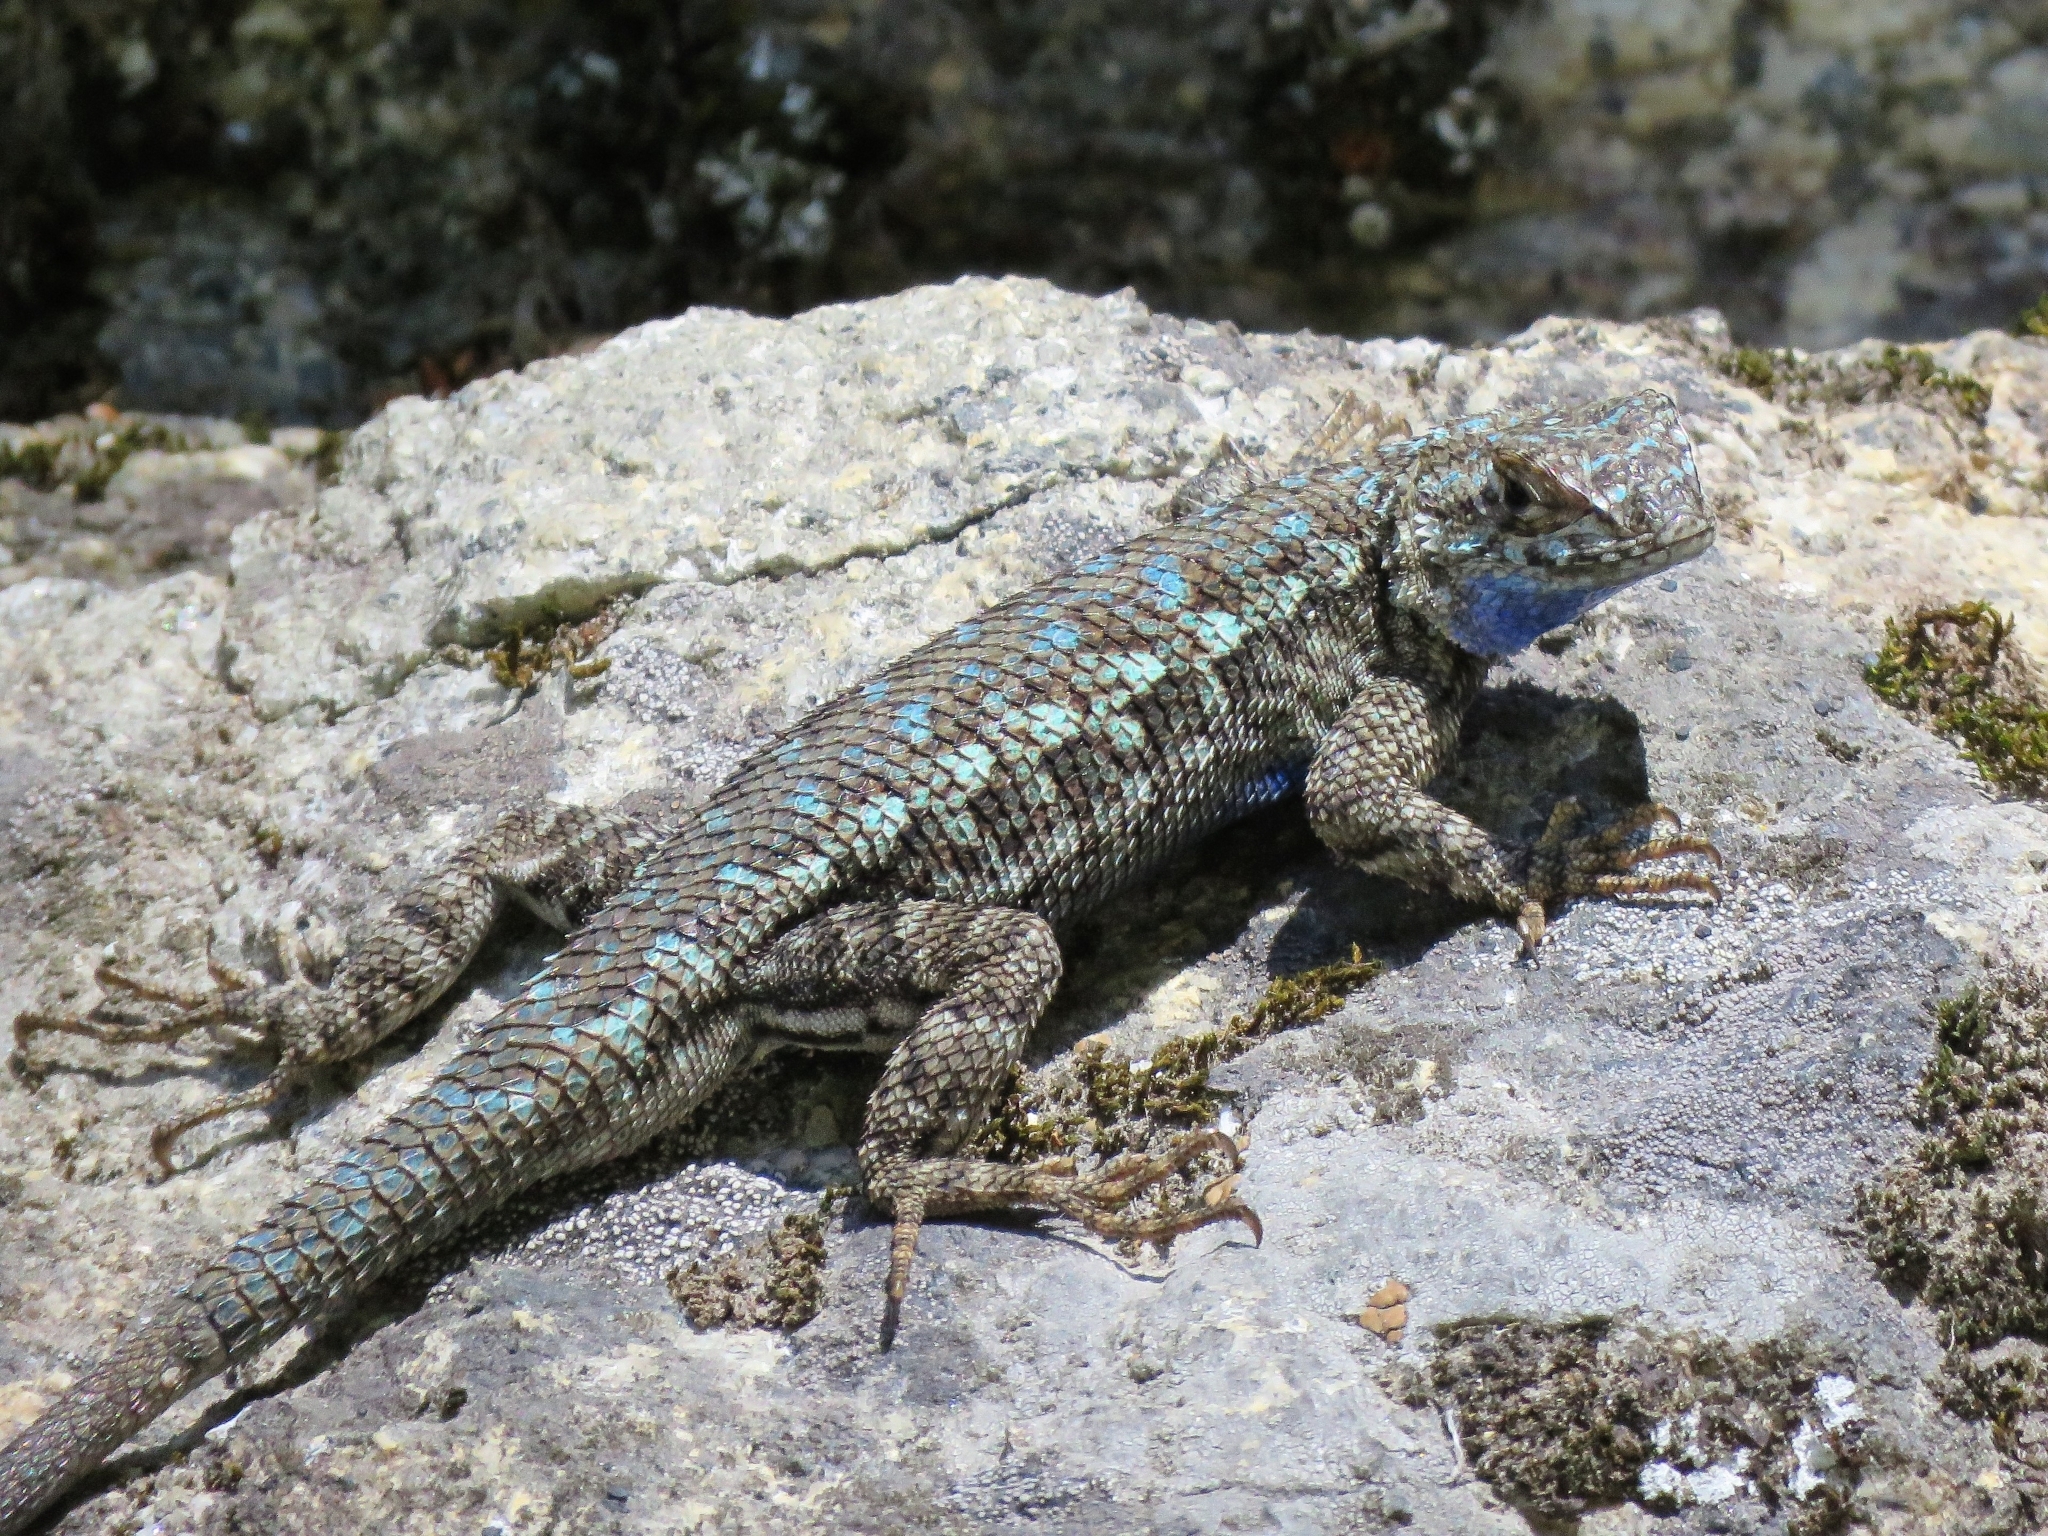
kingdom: Animalia
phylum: Chordata
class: Squamata
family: Phrynosomatidae
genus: Sceloporus
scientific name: Sceloporus occidentalis
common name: Western fence lizard
